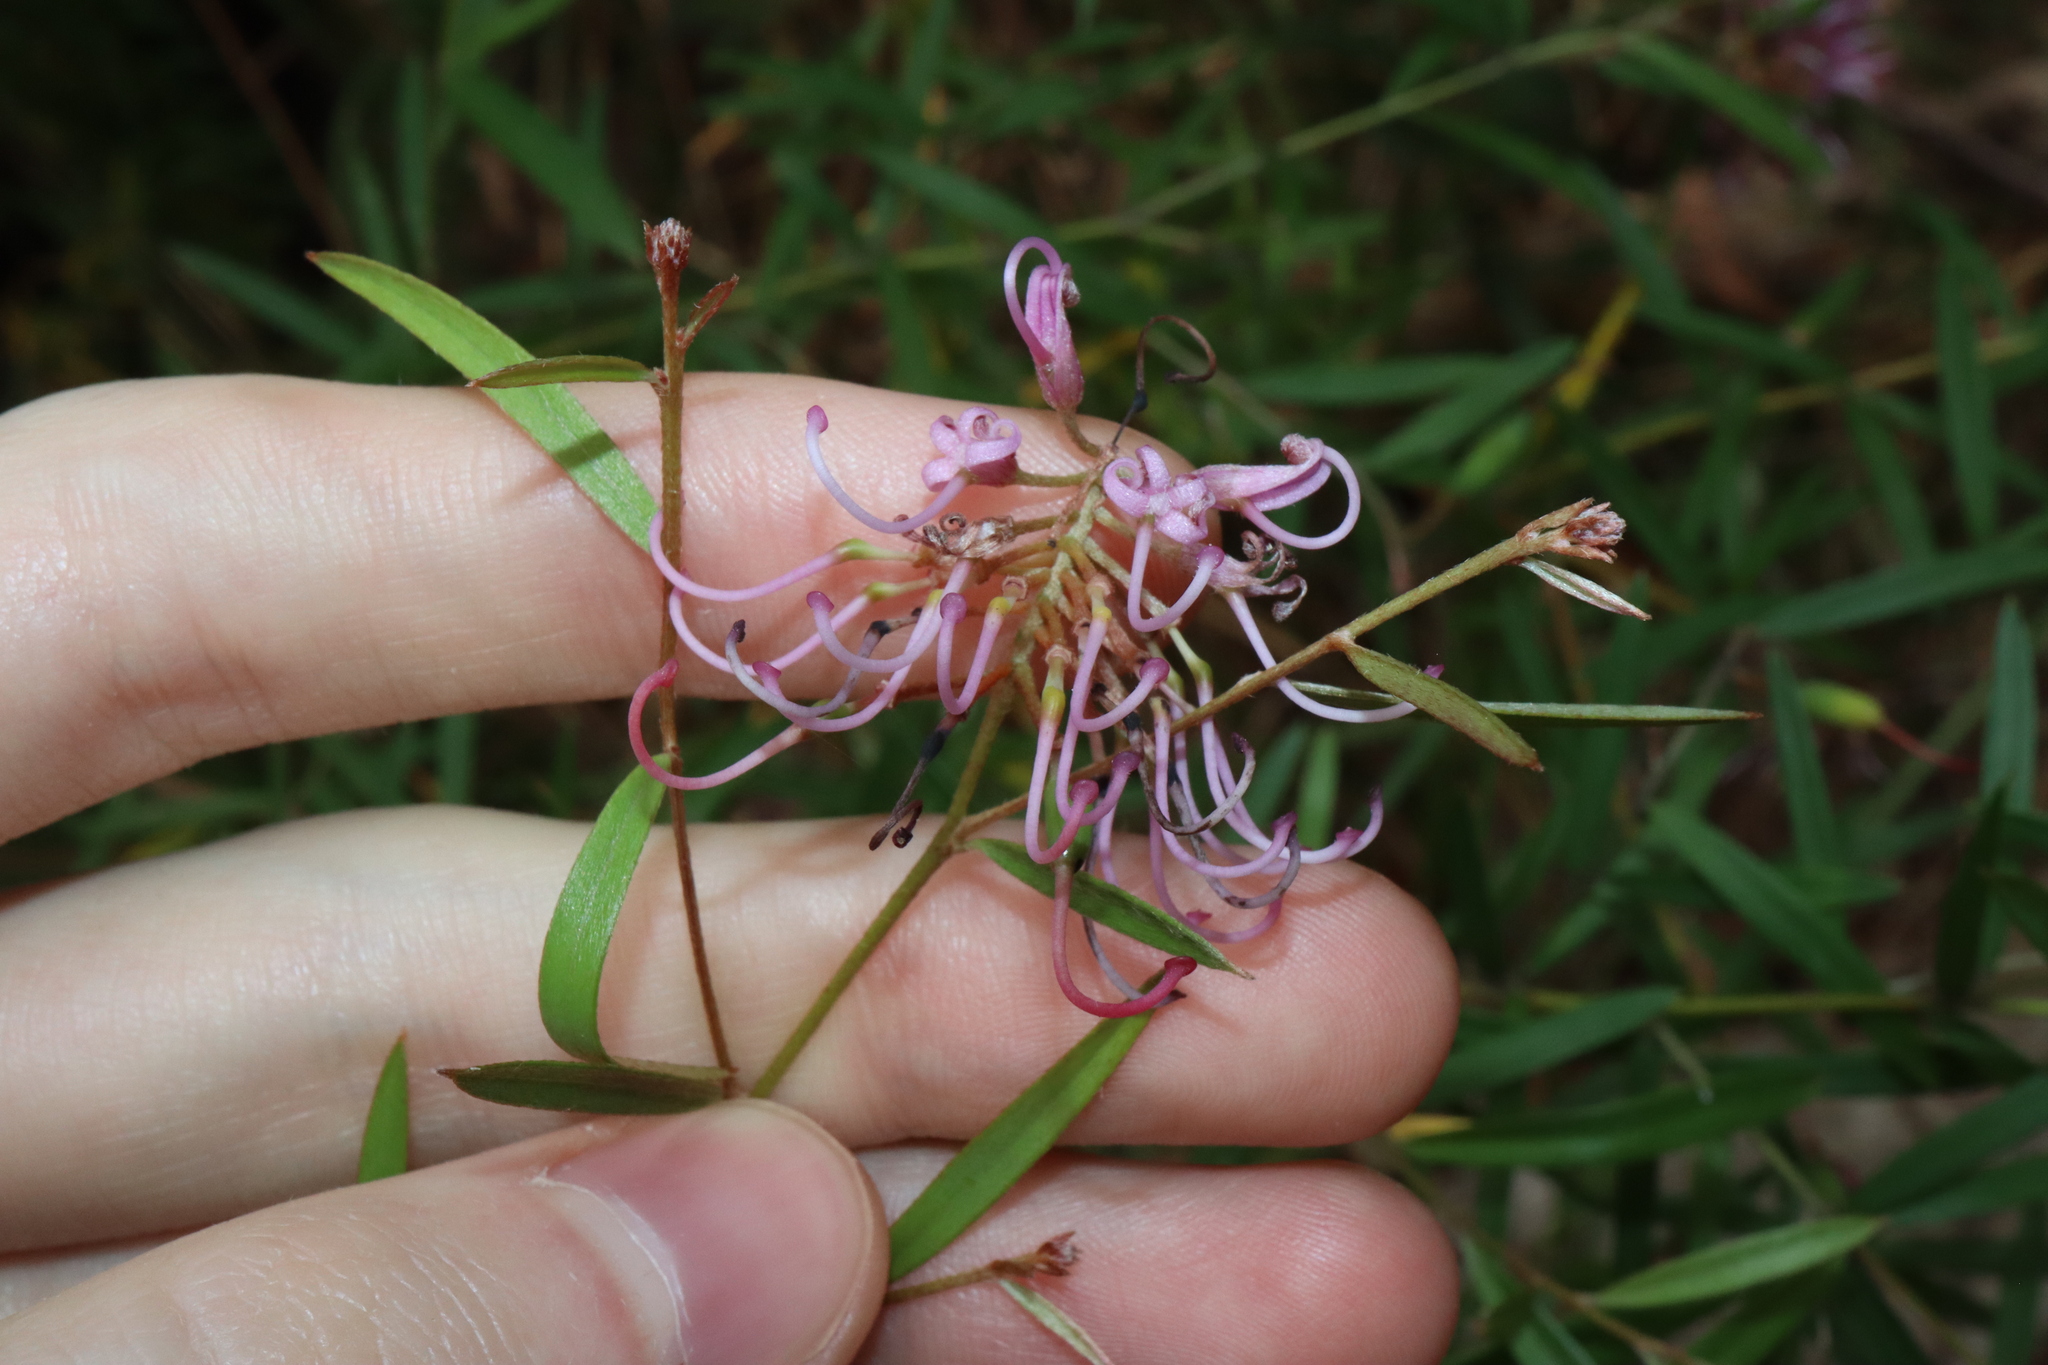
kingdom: Plantae
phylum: Tracheophyta
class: Magnoliopsida
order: Proteales
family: Proteaceae
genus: Grevillea
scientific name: Grevillea sericea
